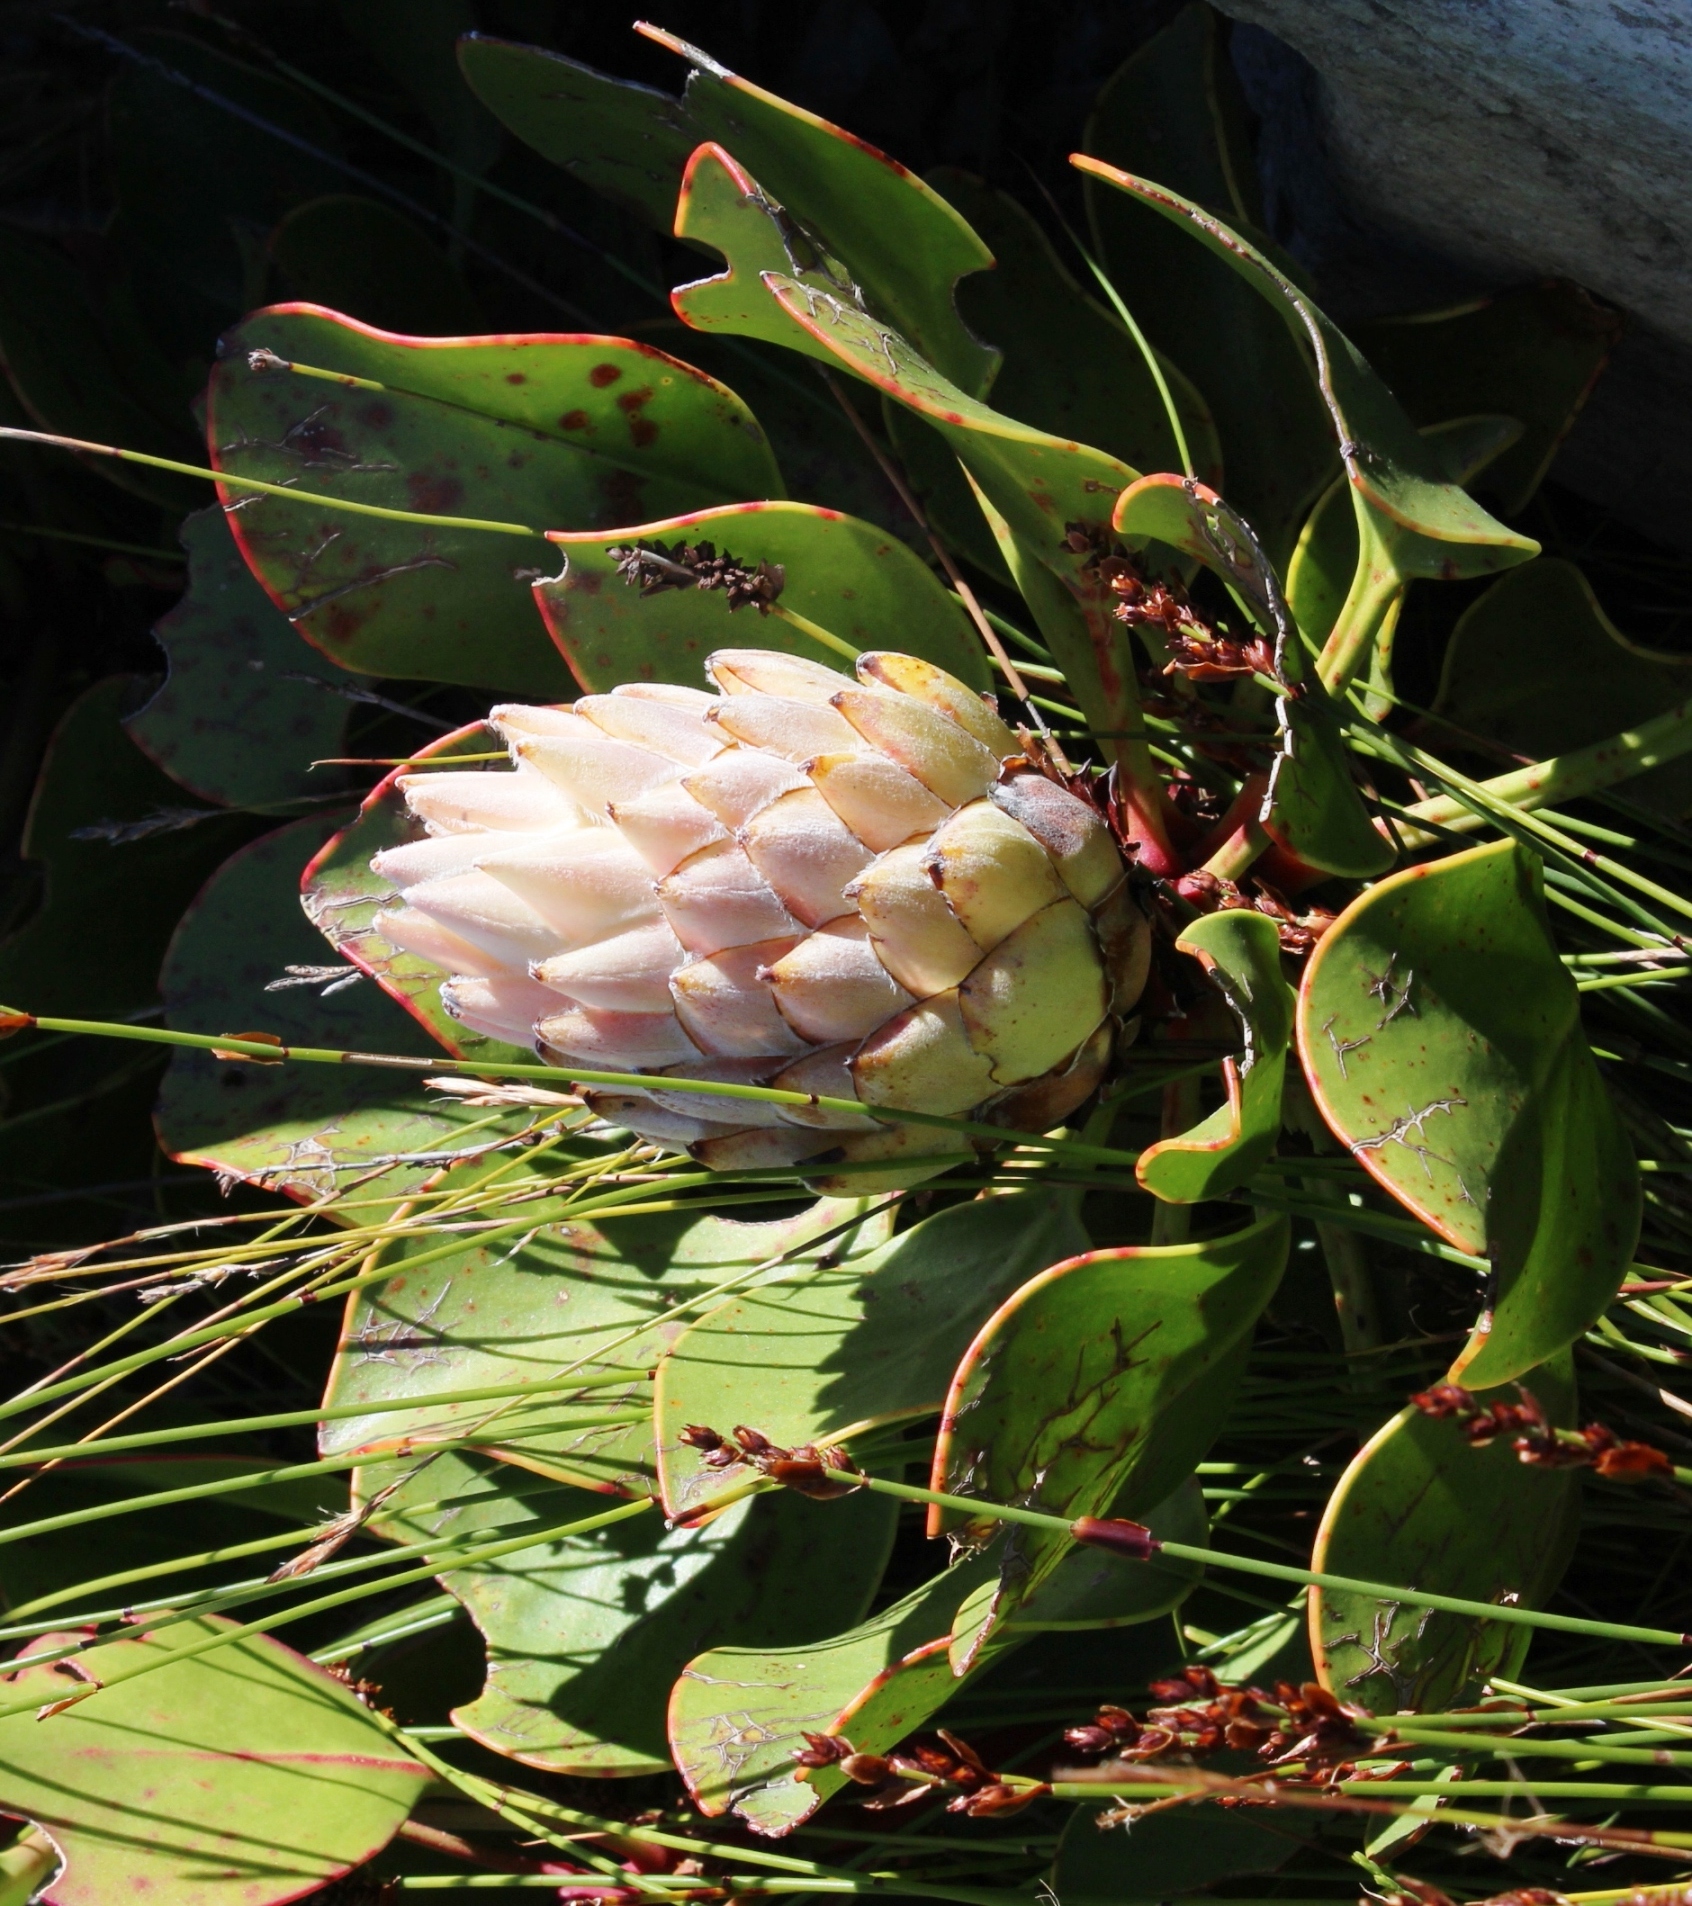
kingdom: Plantae
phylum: Tracheophyta
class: Magnoliopsida
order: Proteales
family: Proteaceae
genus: Protea
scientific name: Protea cynaroides
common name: King protea
